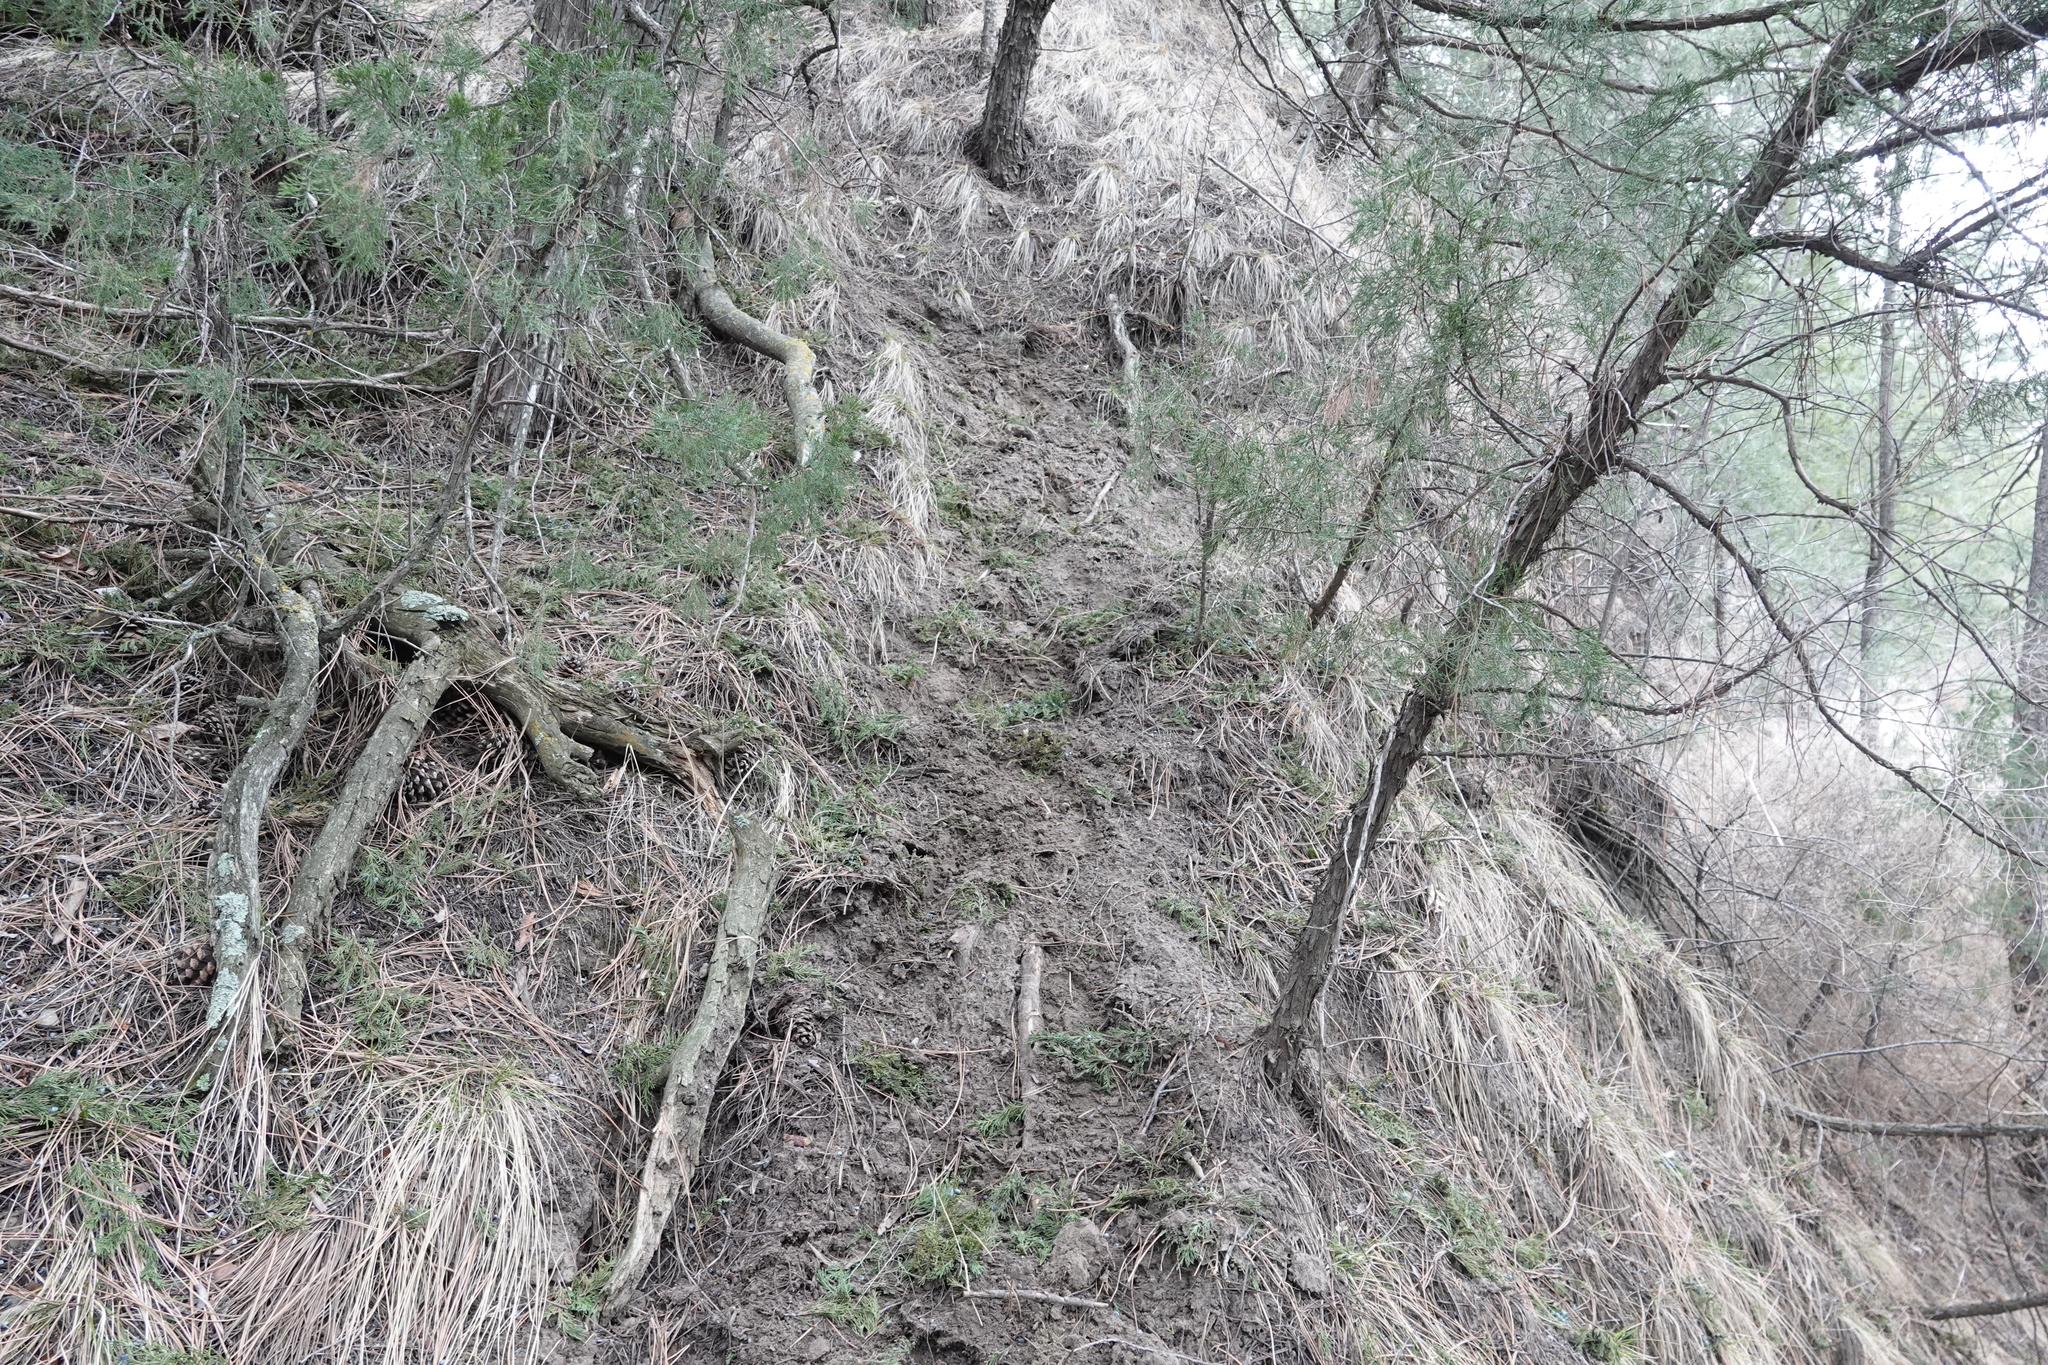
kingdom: Animalia
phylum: Chordata
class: Mammalia
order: Artiodactyla
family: Bovidae
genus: Bos
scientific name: Bos taurus
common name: Domesticated cattle
